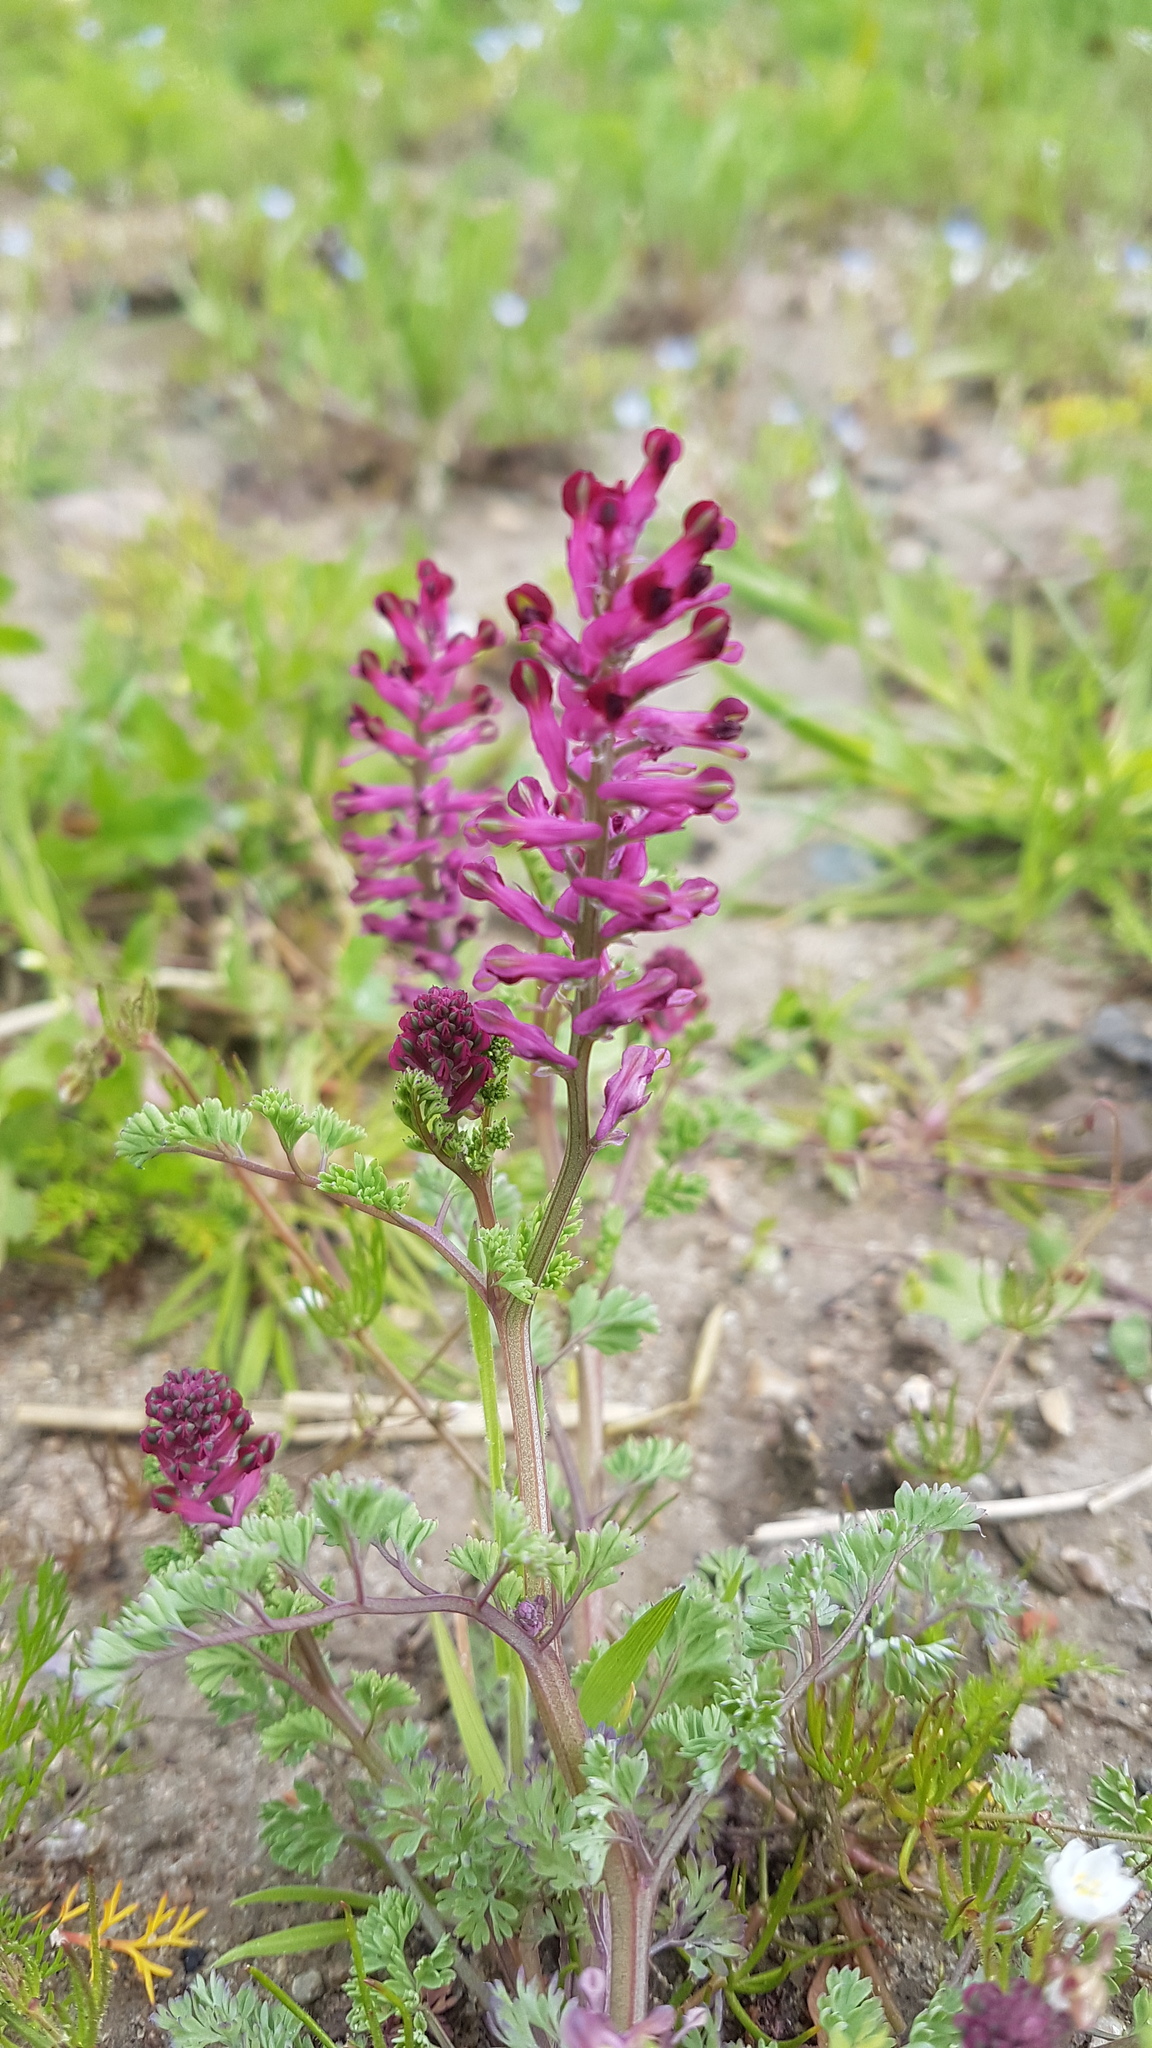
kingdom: Plantae
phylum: Tracheophyta
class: Magnoliopsida
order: Ranunculales
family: Papaveraceae
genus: Fumaria
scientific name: Fumaria officinalis
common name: Common fumitory
